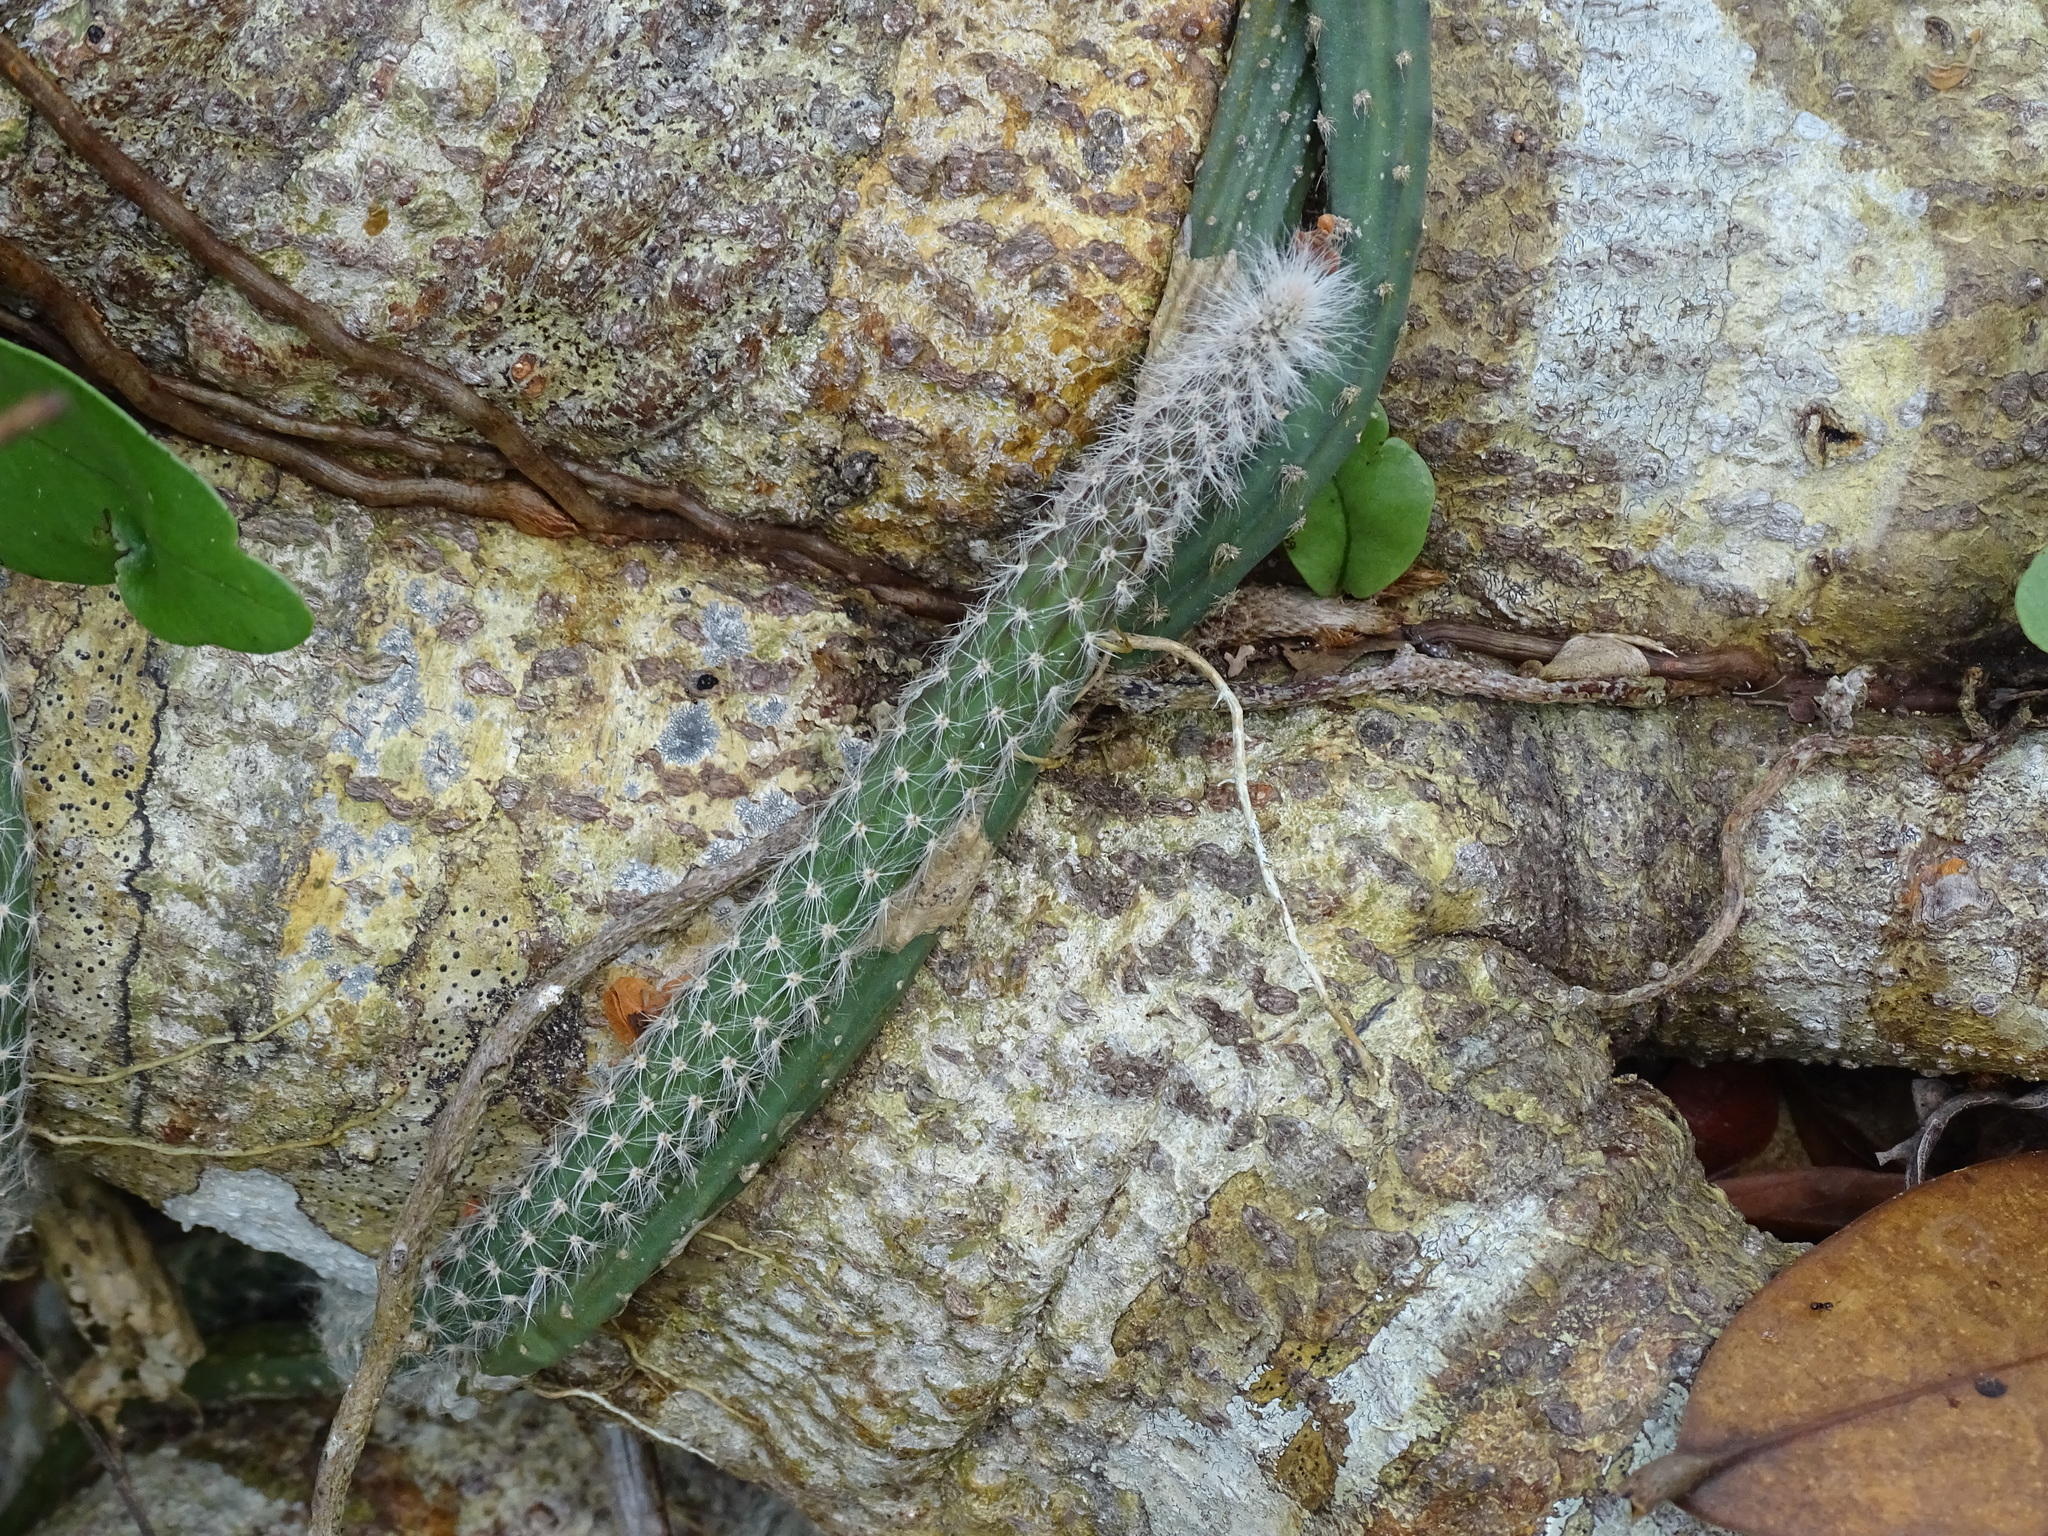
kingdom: Plantae
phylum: Tracheophyta
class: Magnoliopsida
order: Caryophyllales
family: Cactaceae
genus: Selenicereus
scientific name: Selenicereus grandiflorus
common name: Queen of the night
